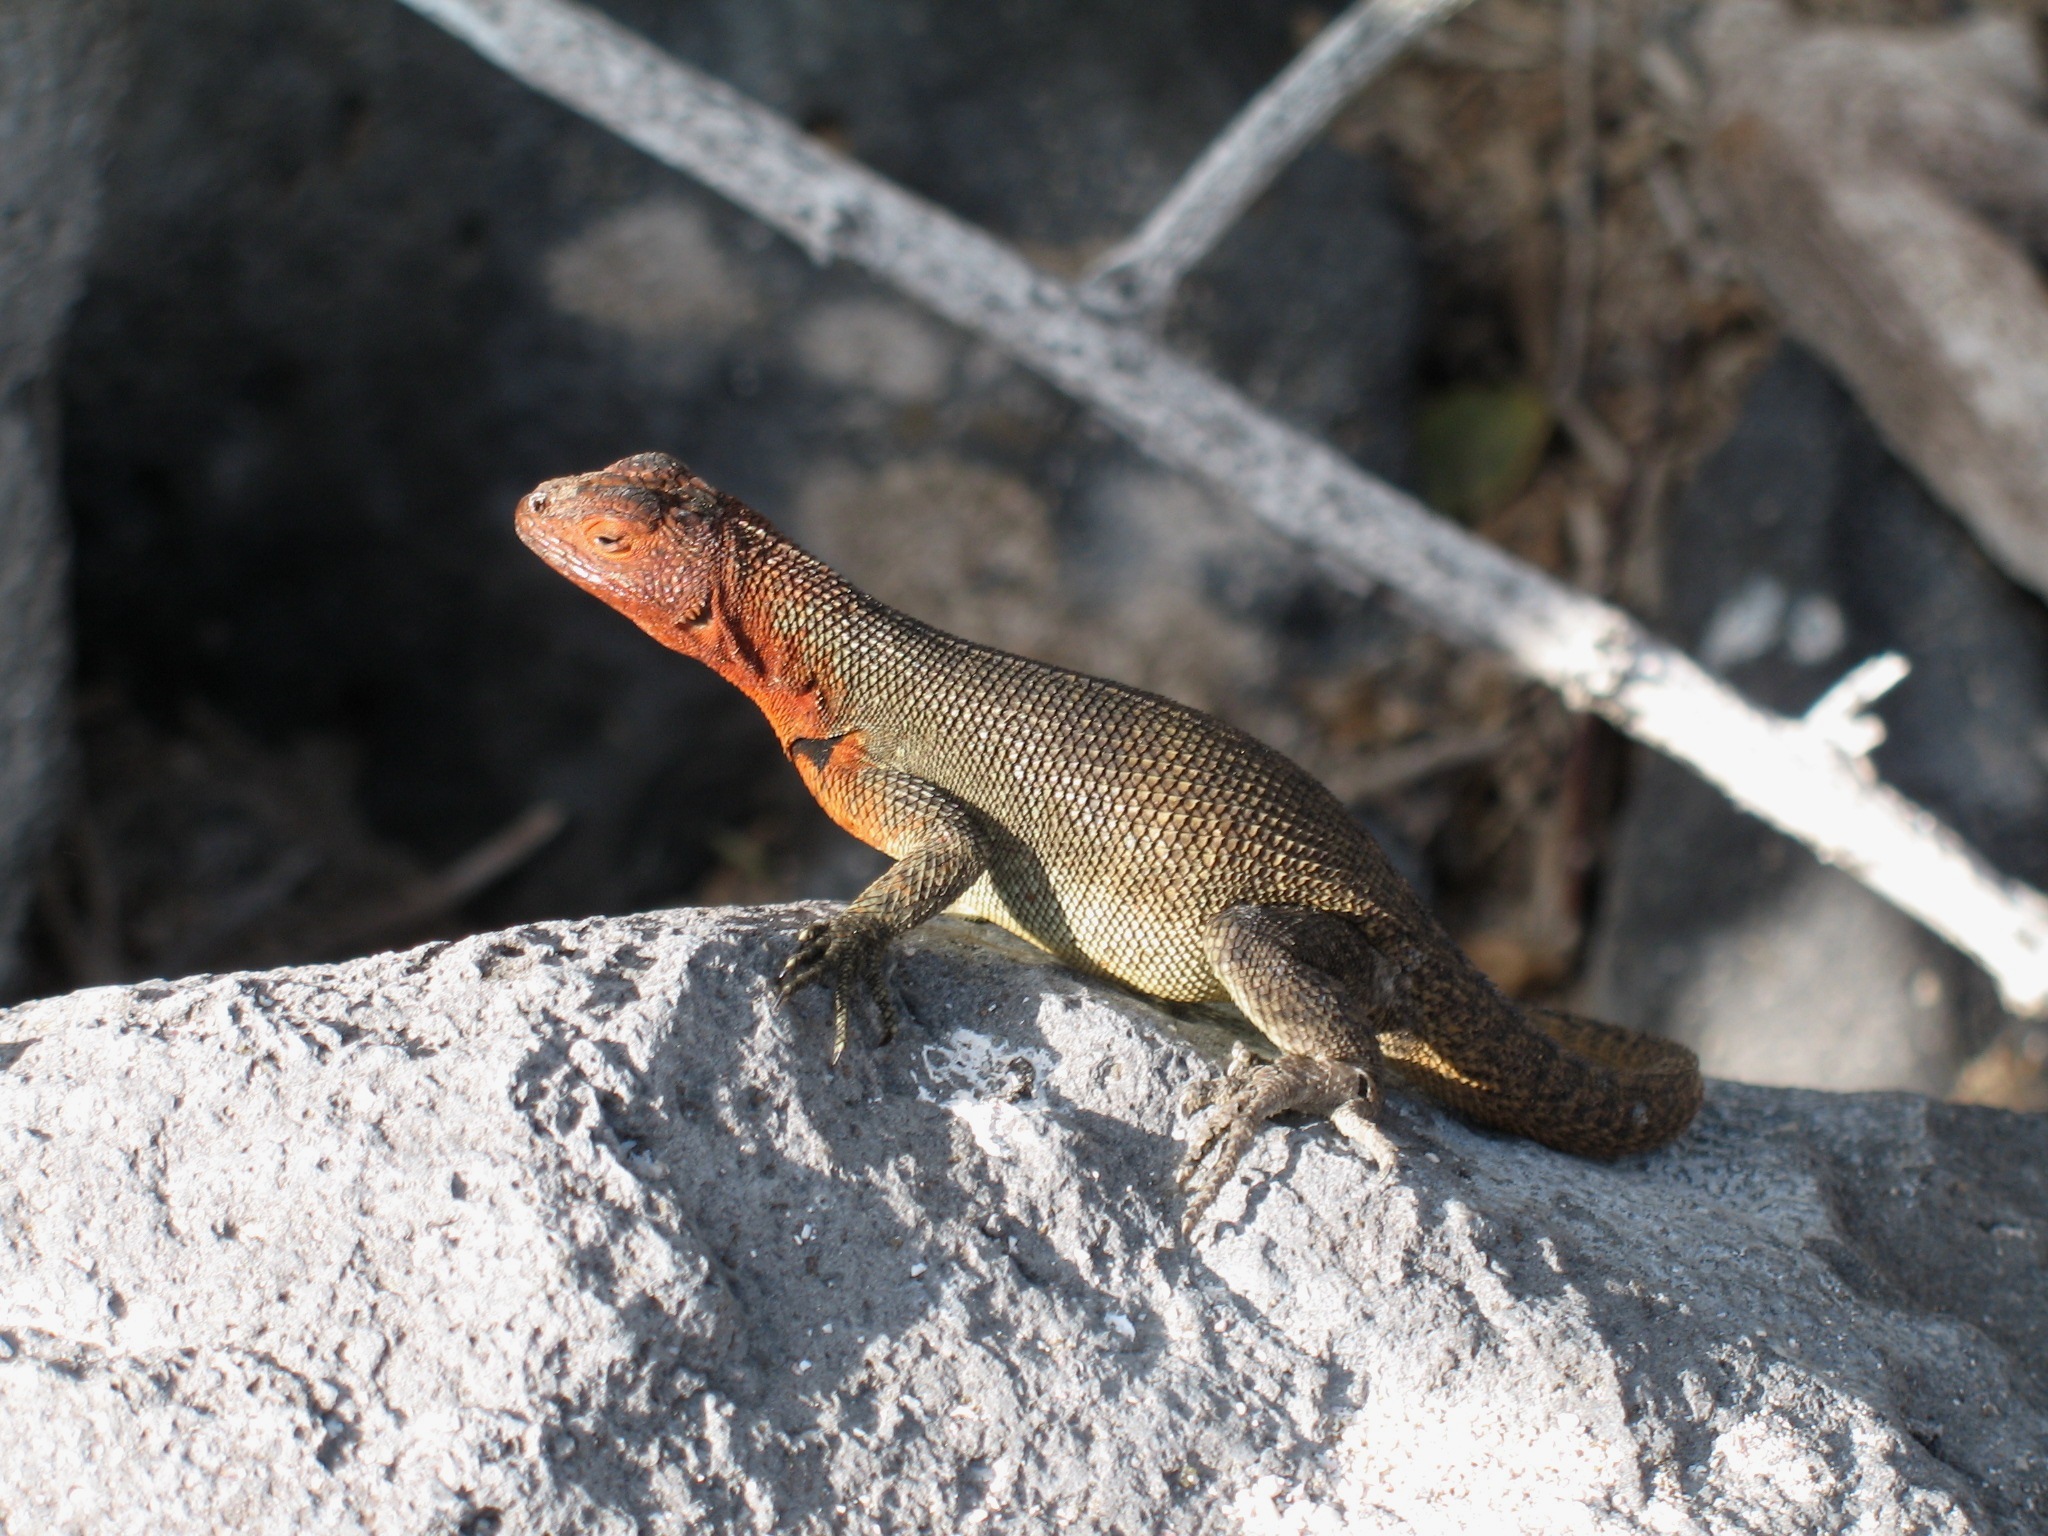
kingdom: Animalia
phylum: Chordata
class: Squamata
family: Tropiduridae
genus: Microlophus
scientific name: Microlophus delanonis
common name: Hood lava lizard
